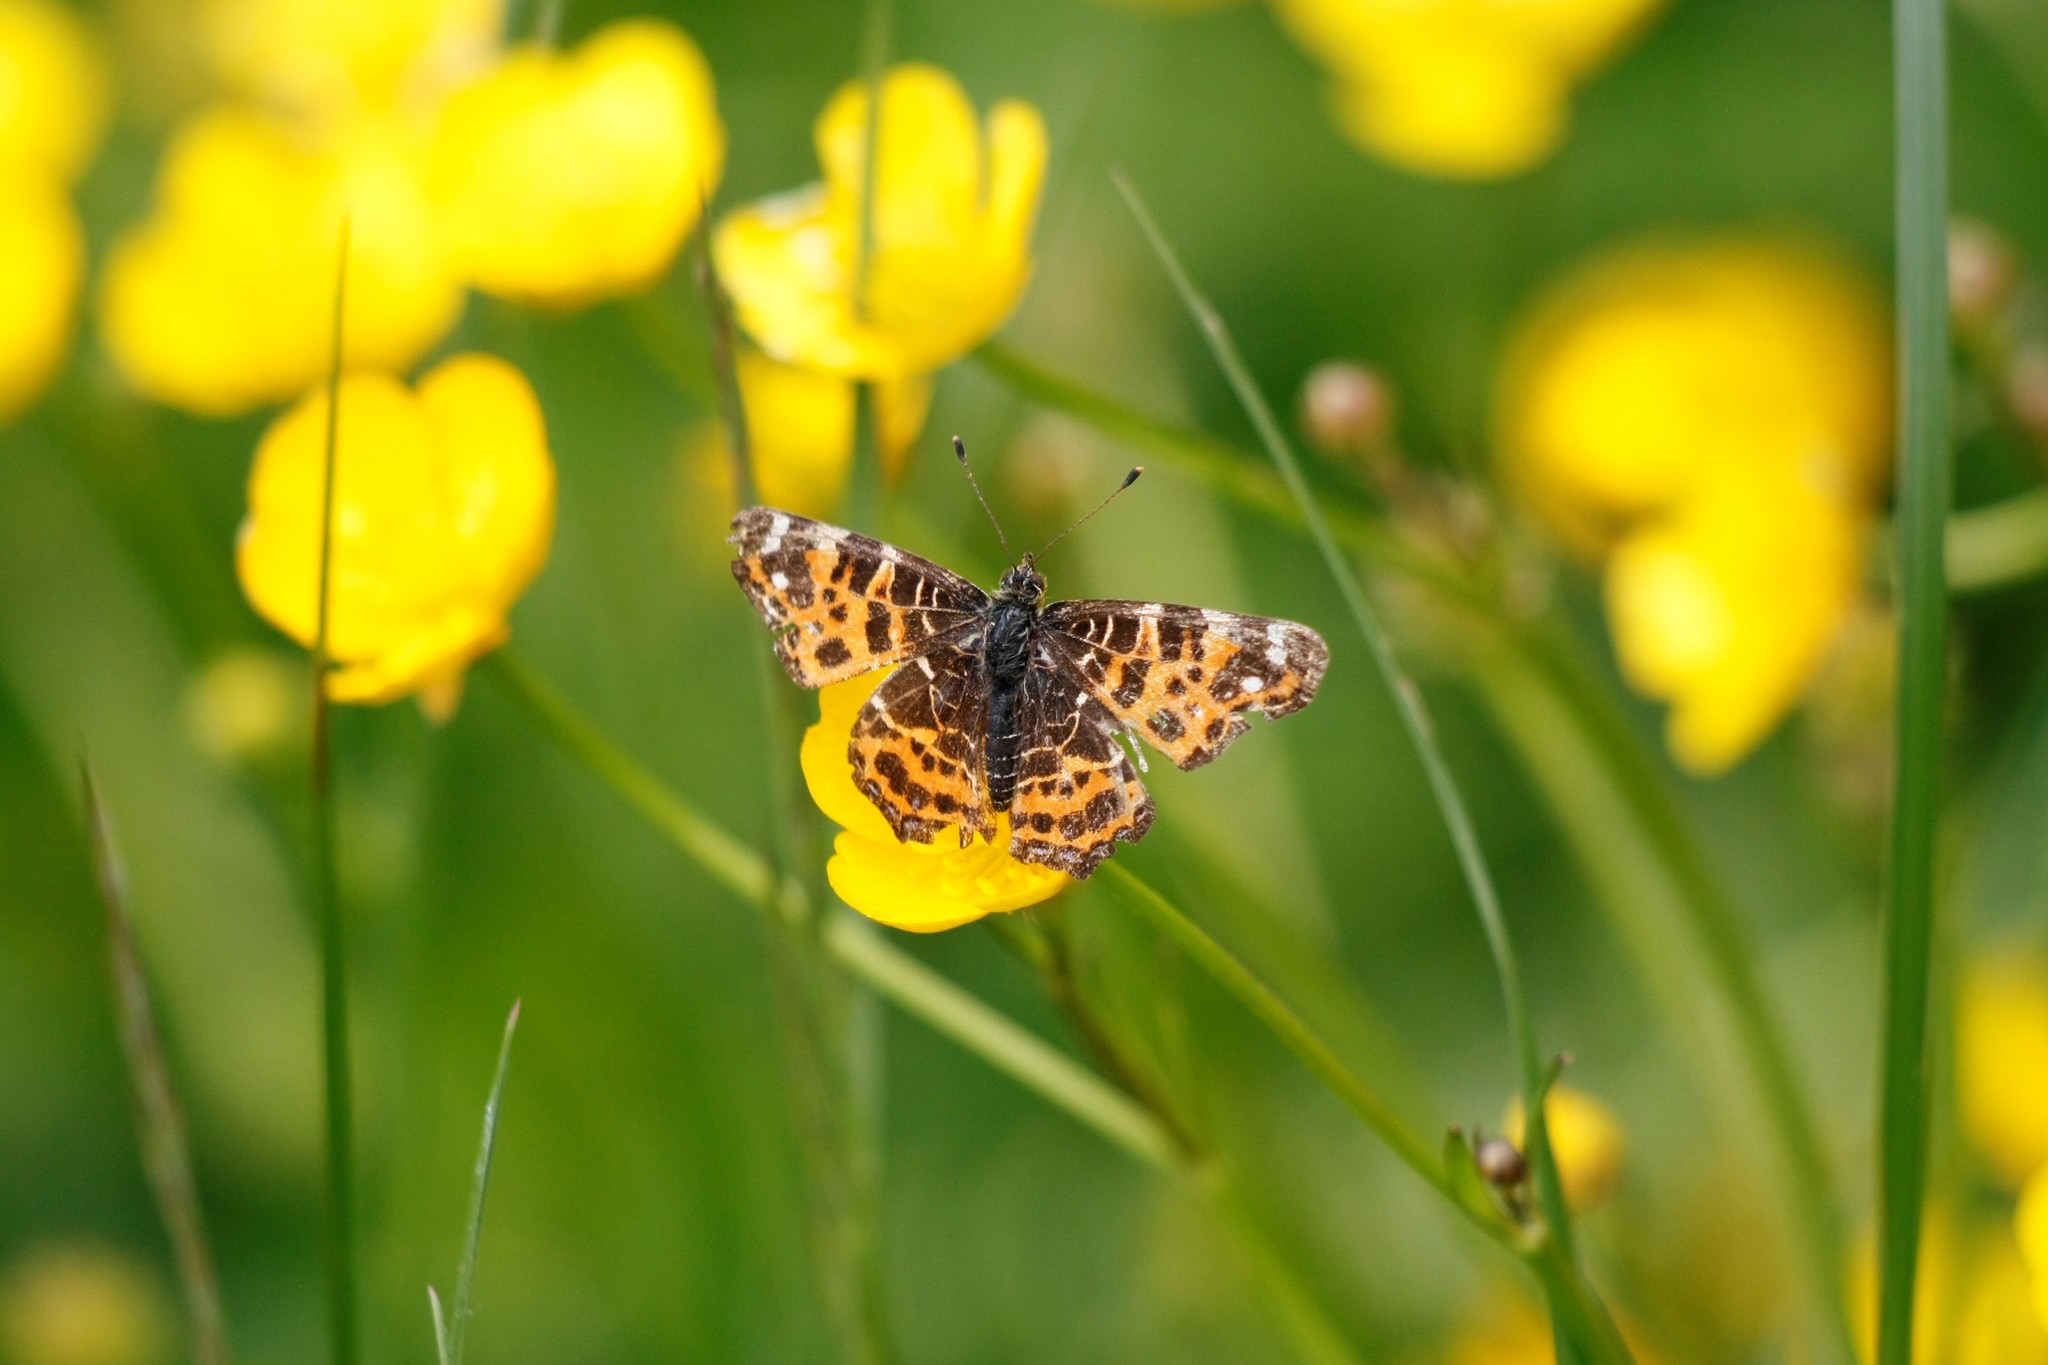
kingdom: Animalia
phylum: Arthropoda
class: Insecta
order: Lepidoptera
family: Nymphalidae
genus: Araschnia
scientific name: Araschnia levana
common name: Map butterfly
